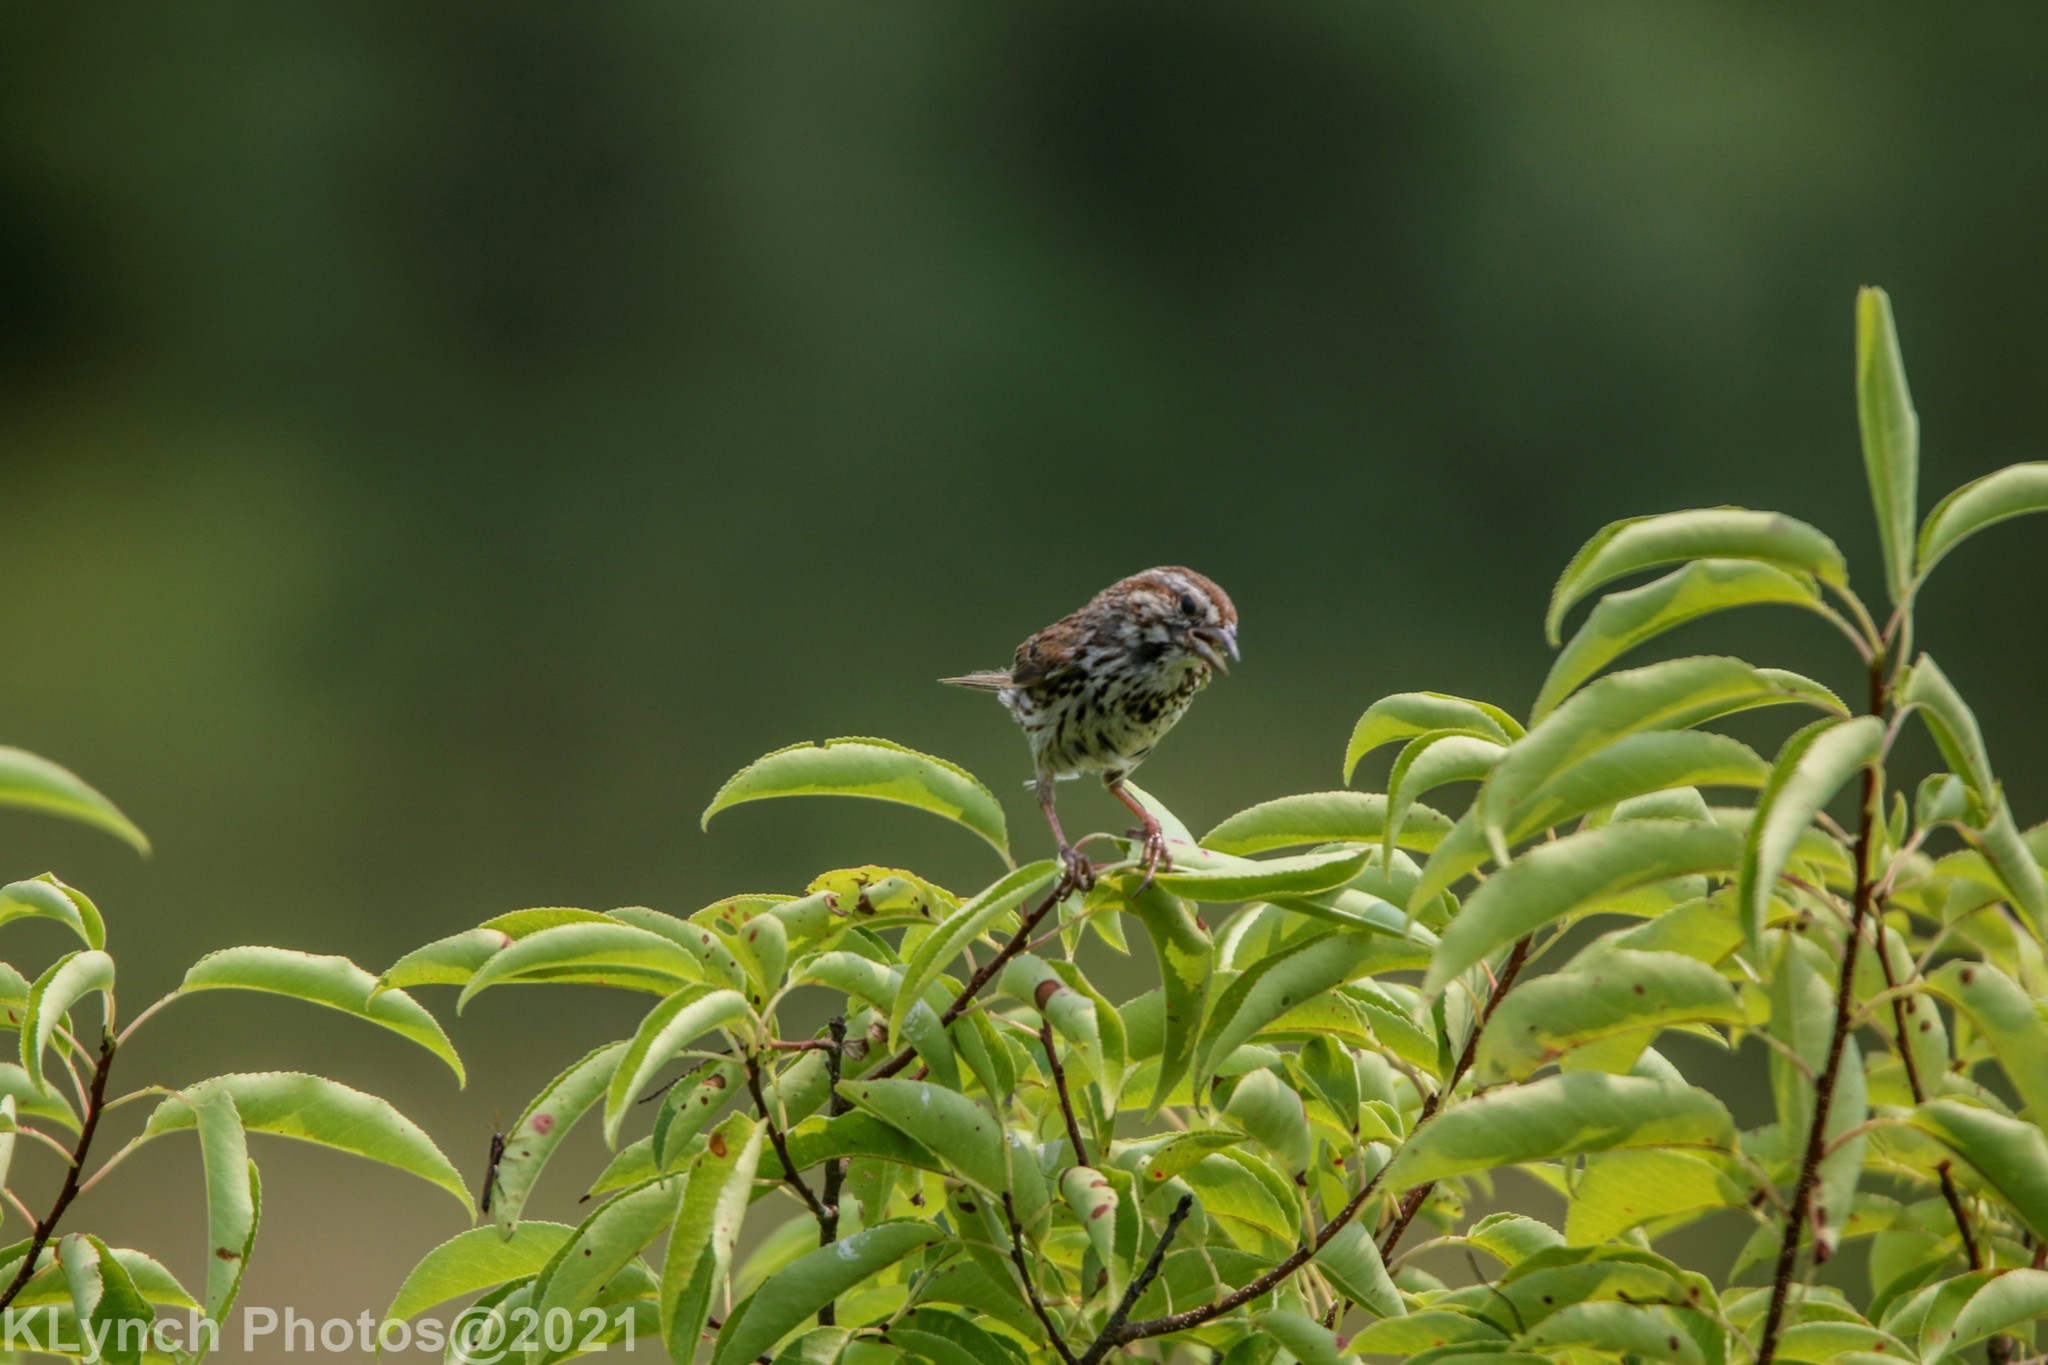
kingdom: Animalia
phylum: Chordata
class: Aves
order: Passeriformes
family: Passerellidae
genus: Melospiza
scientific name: Melospiza melodia
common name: Song sparrow
